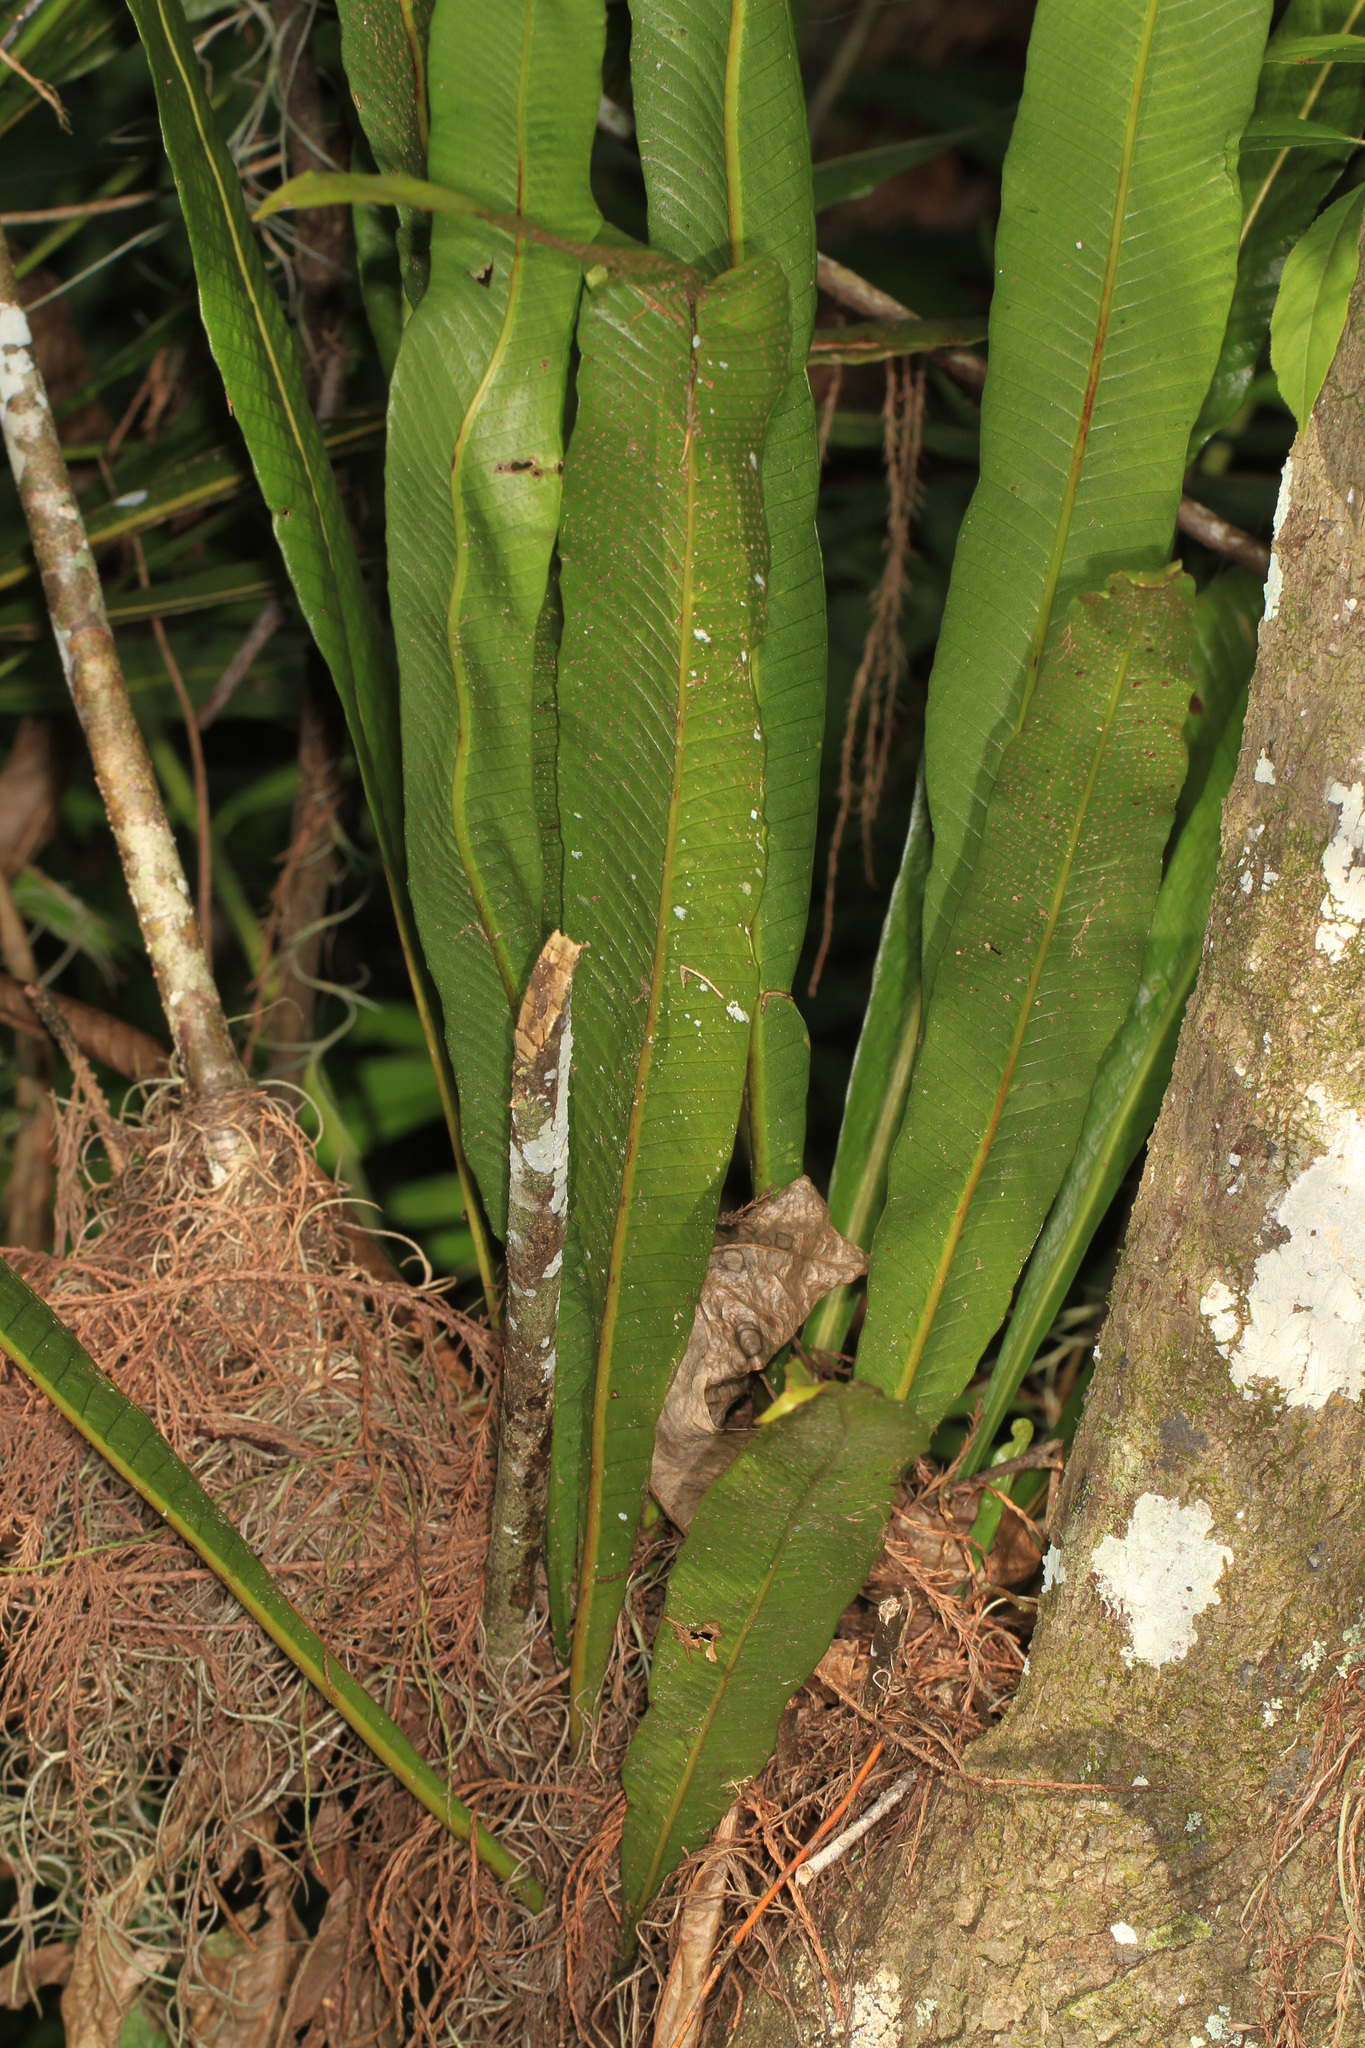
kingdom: Plantae
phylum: Tracheophyta
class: Polypodiopsida
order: Polypodiales
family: Polypodiaceae
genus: Campyloneurum
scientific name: Campyloneurum phyllitidis
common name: Cow-tongue fern
